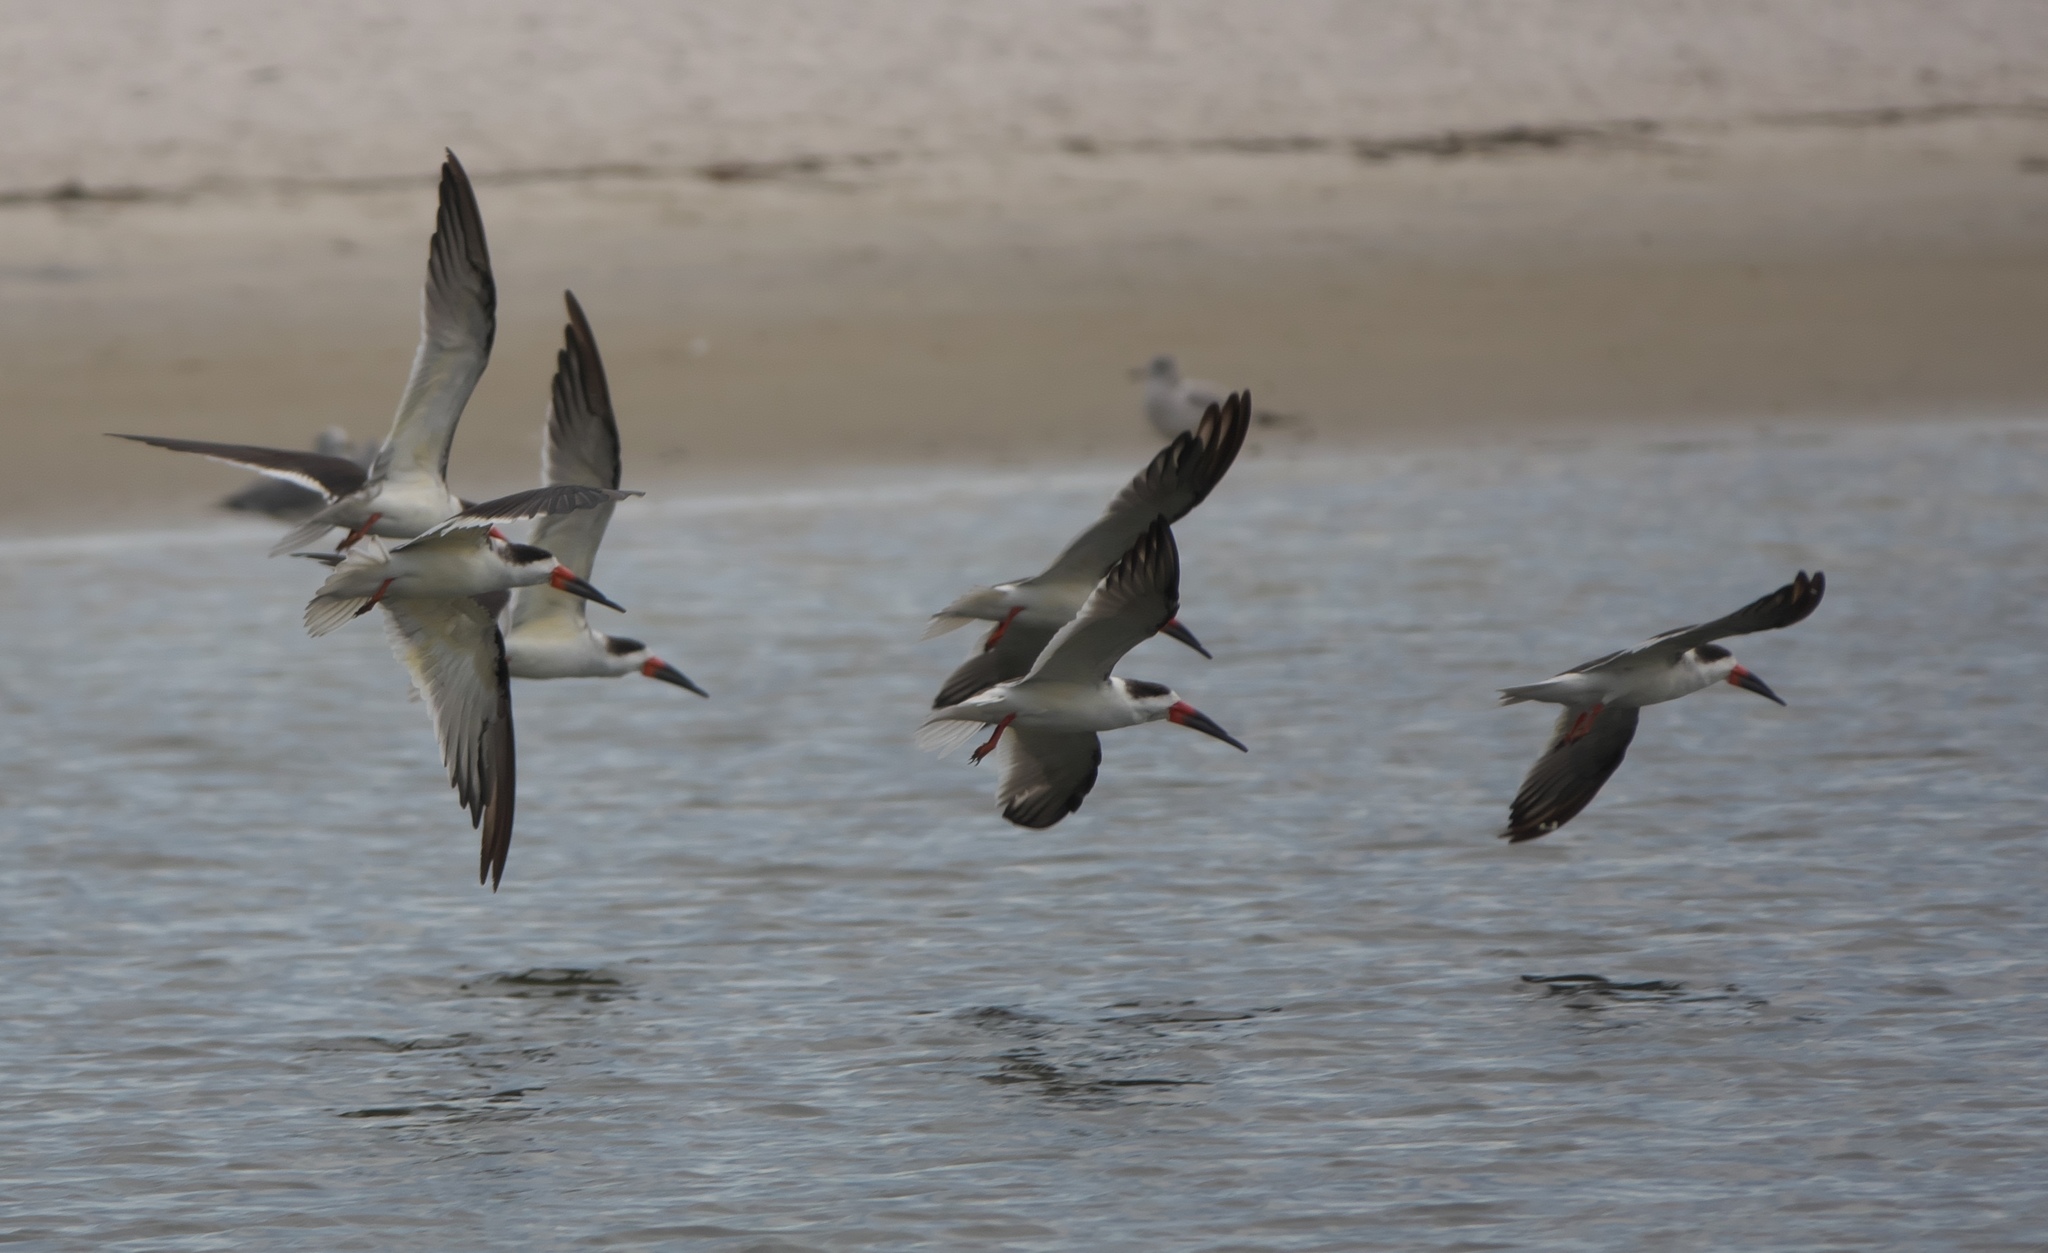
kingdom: Animalia
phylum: Chordata
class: Aves
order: Charadriiformes
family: Laridae
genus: Rynchops
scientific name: Rynchops niger
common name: Black skimmer
